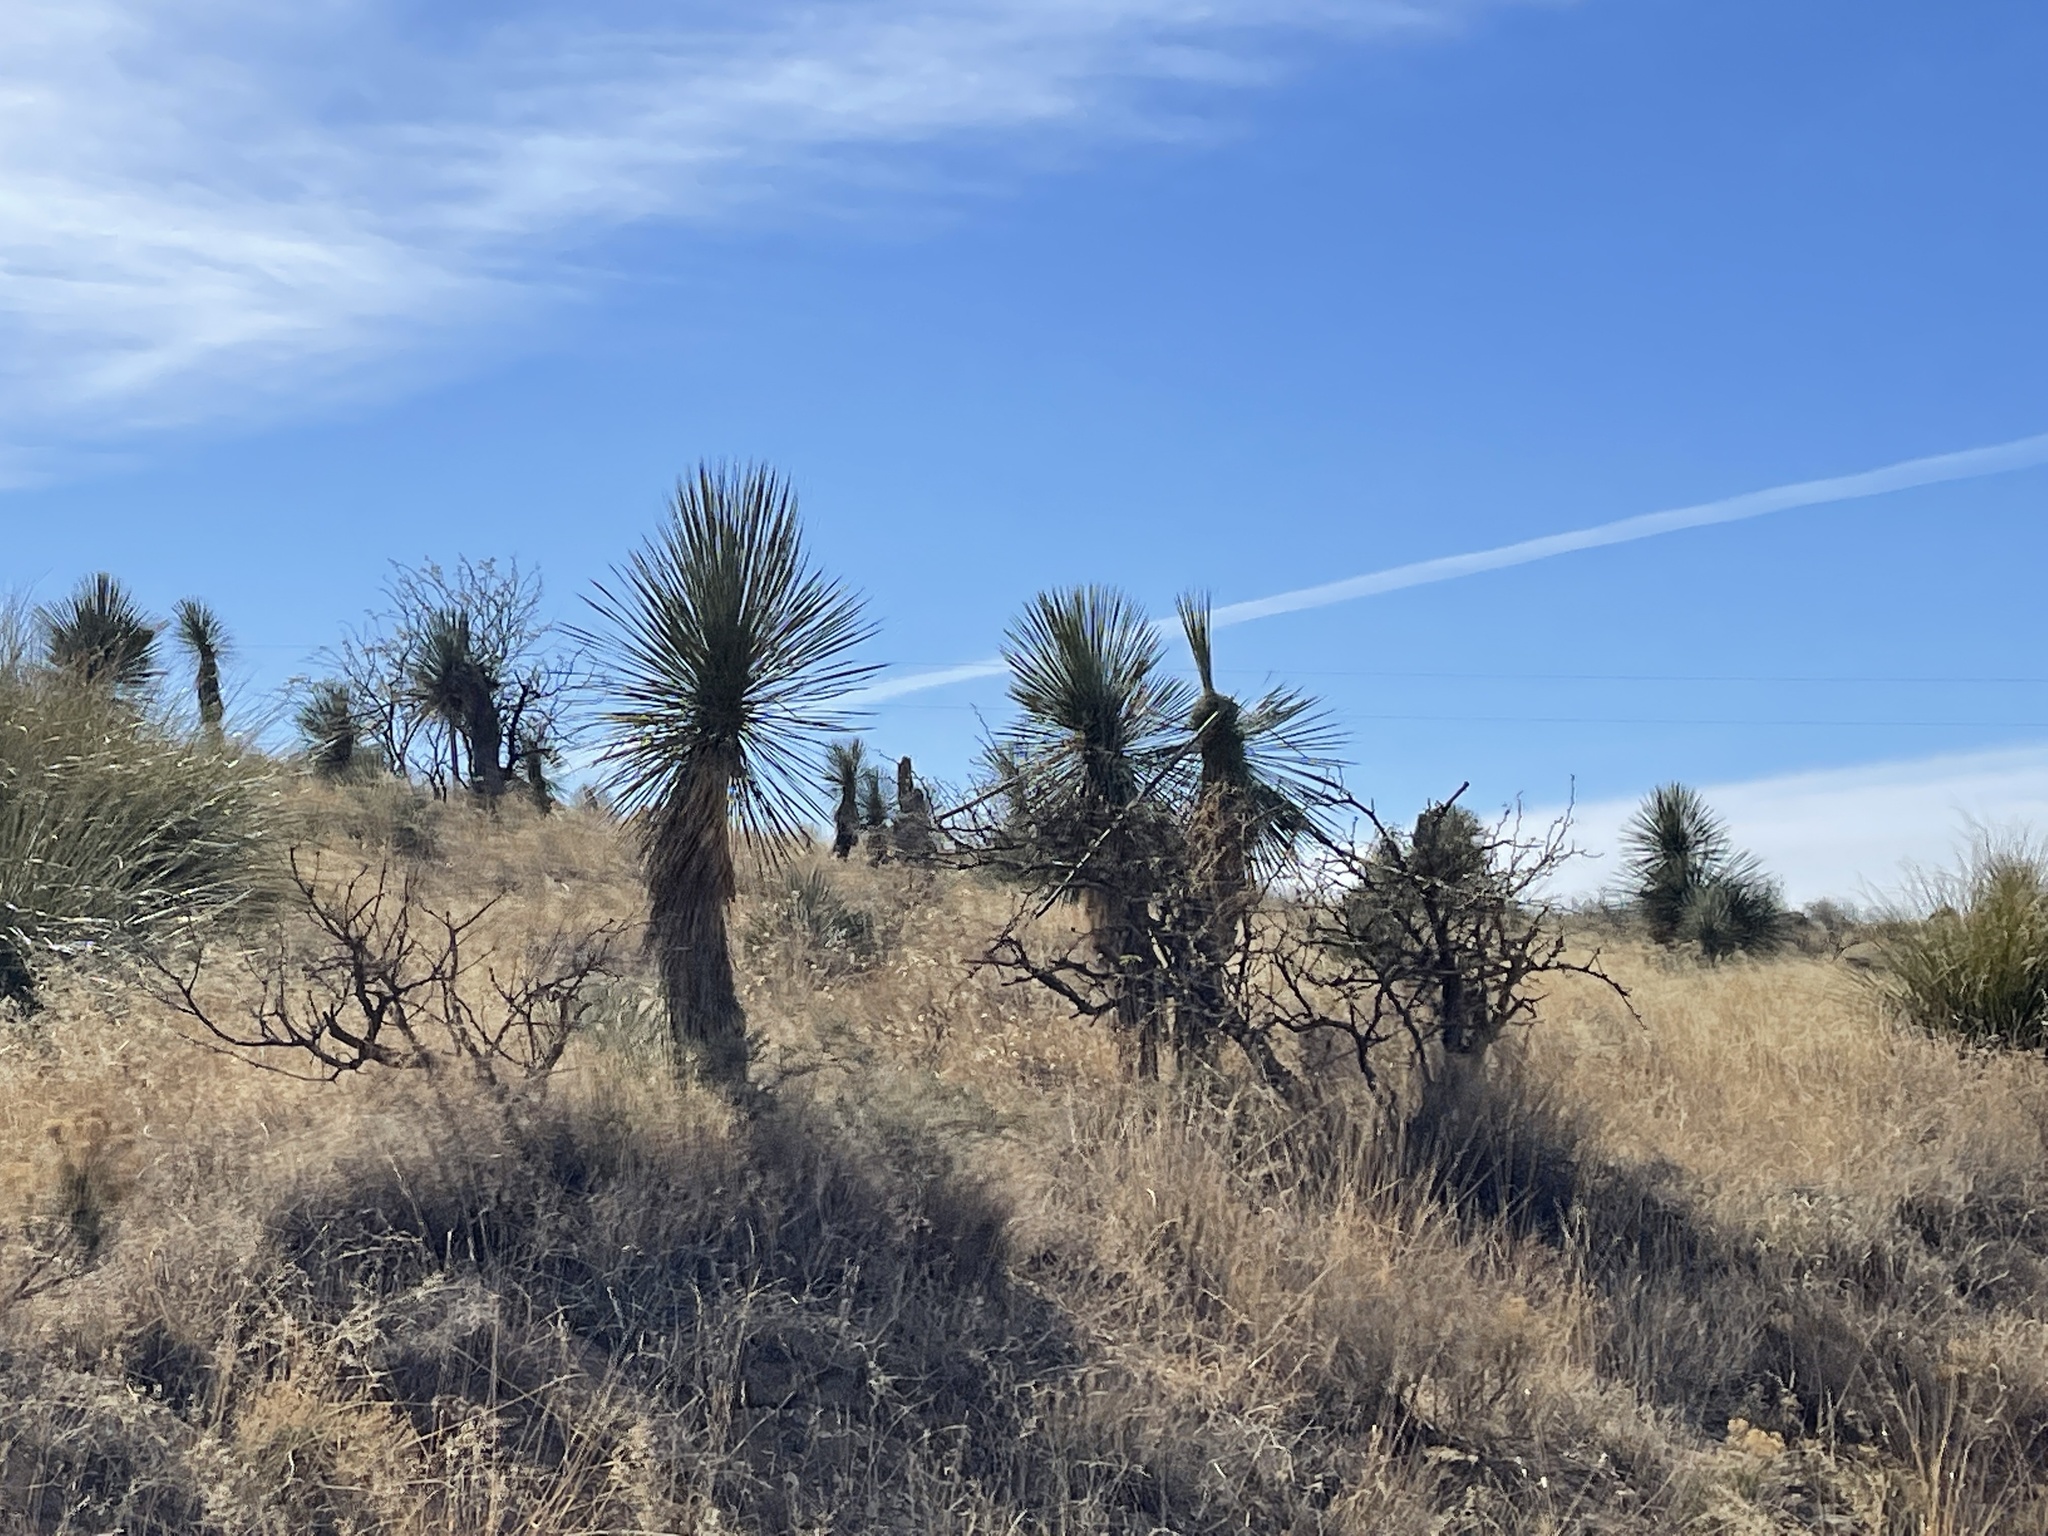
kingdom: Plantae
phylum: Tracheophyta
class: Liliopsida
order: Asparagales
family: Asparagaceae
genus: Yucca
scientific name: Yucca elata
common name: Palmella
